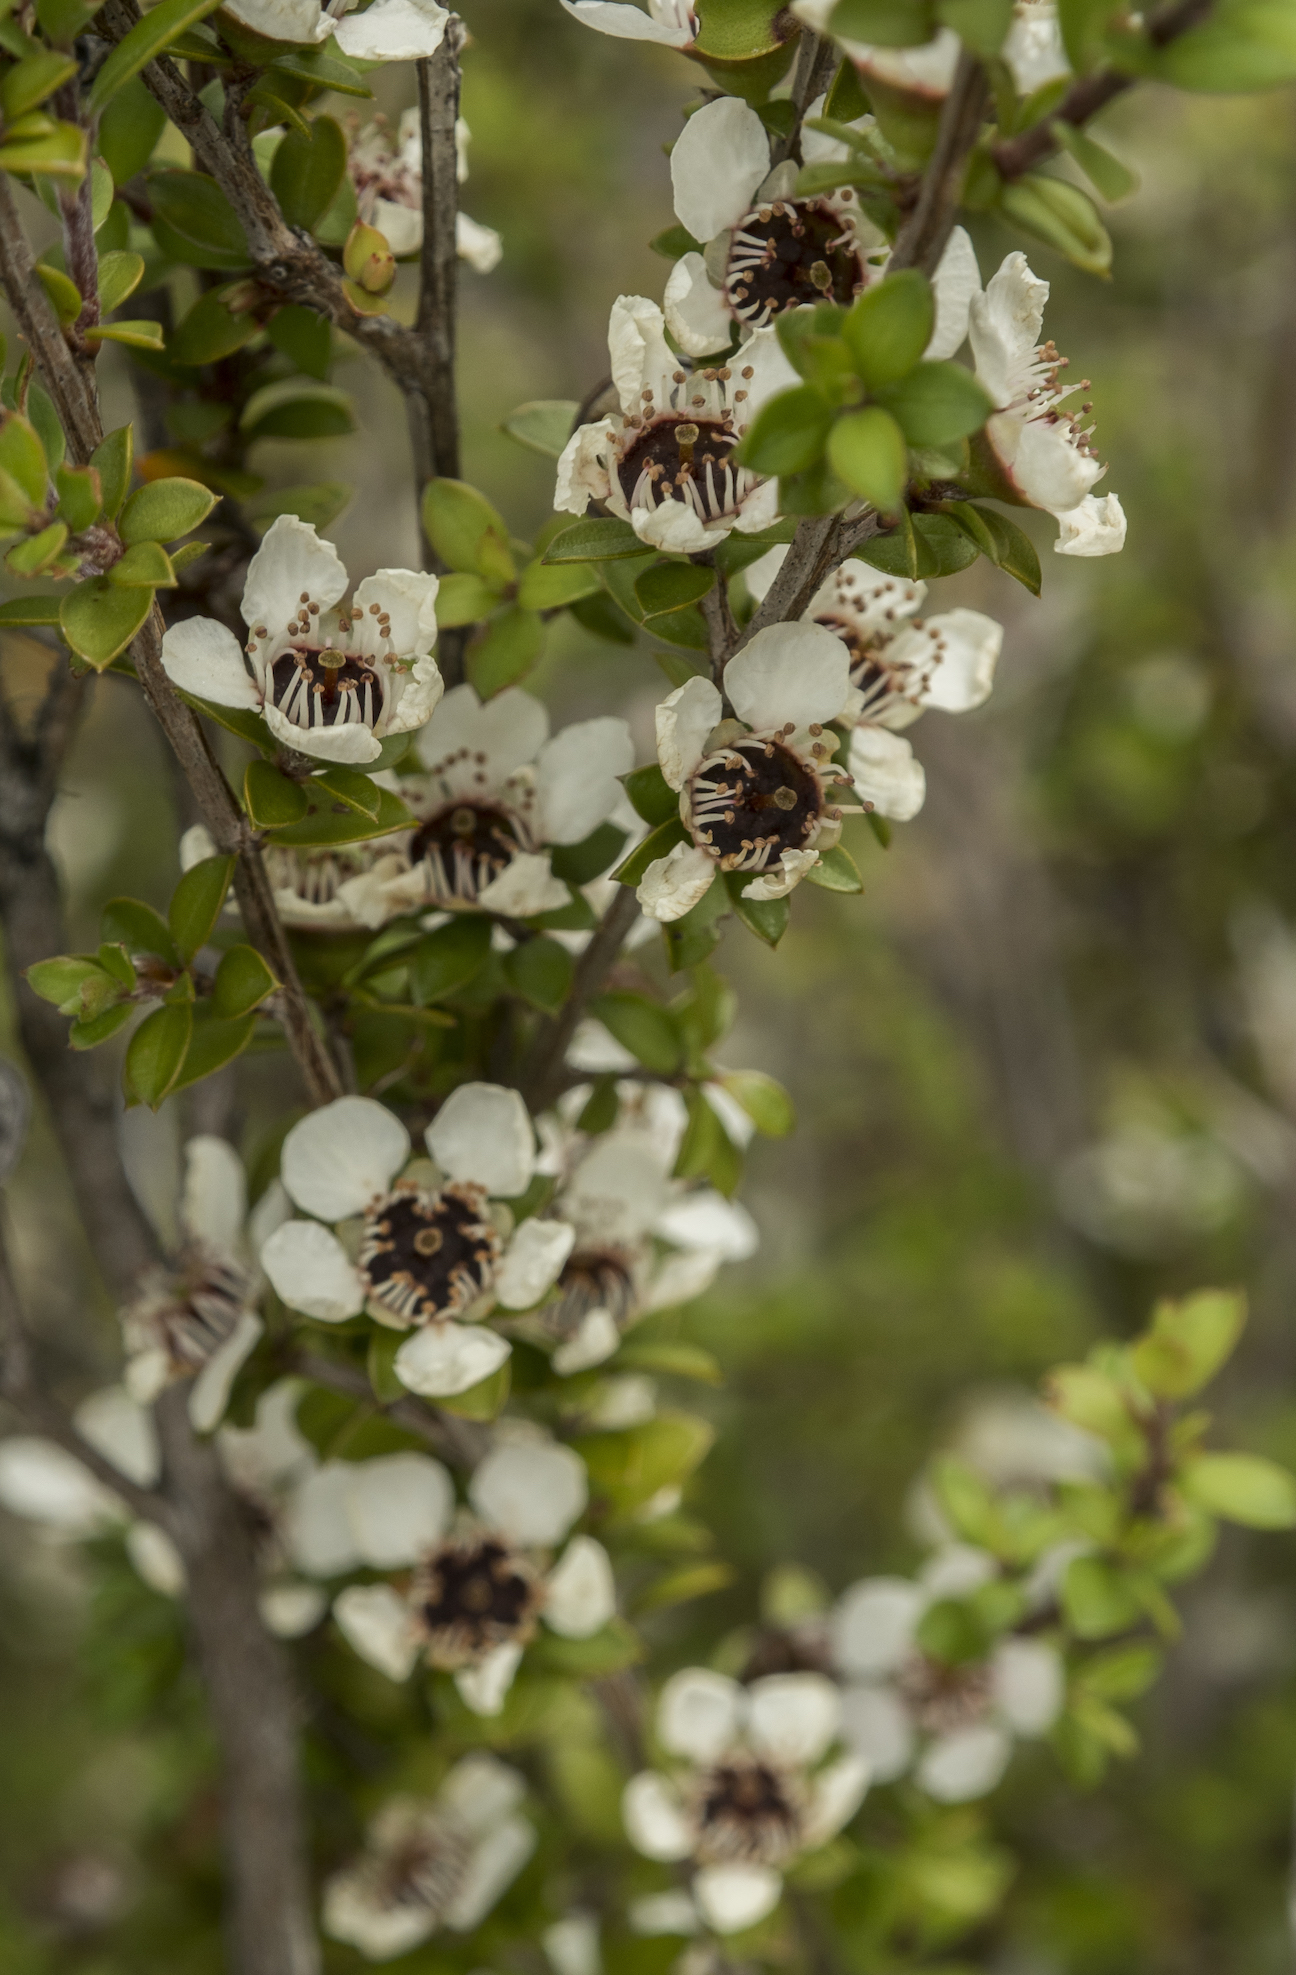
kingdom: Plantae
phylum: Tracheophyta
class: Magnoliopsida
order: Myrtales
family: Myrtaceae
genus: Leptospermum
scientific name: Leptospermum scoparium
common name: Broom tea-tree
